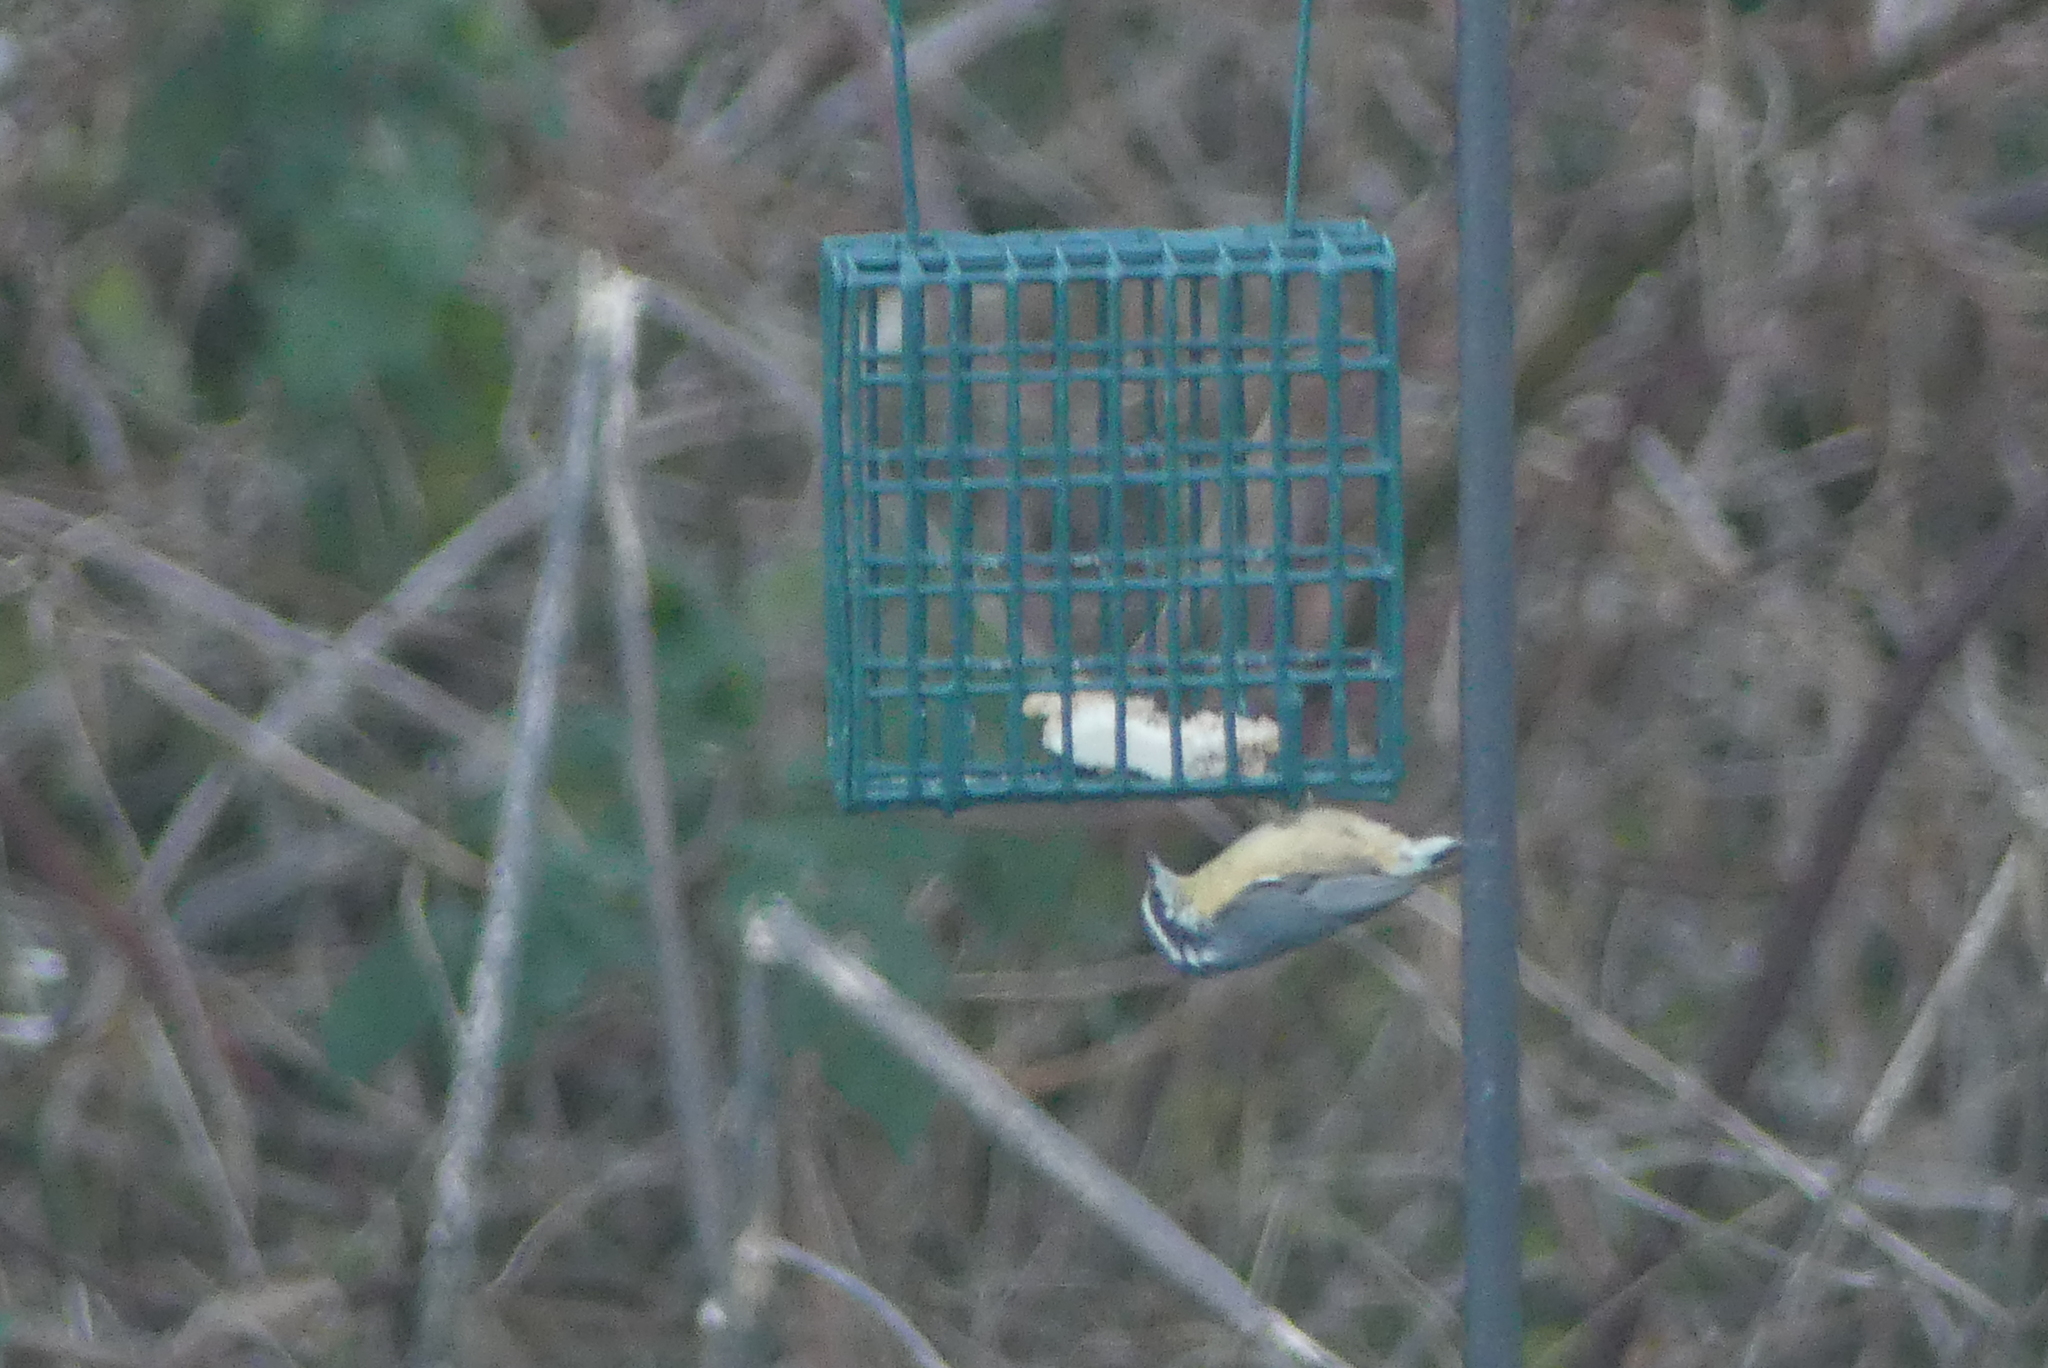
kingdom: Animalia
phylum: Chordata
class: Aves
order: Passeriformes
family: Sittidae
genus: Sitta
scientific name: Sitta canadensis
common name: Red-breasted nuthatch
